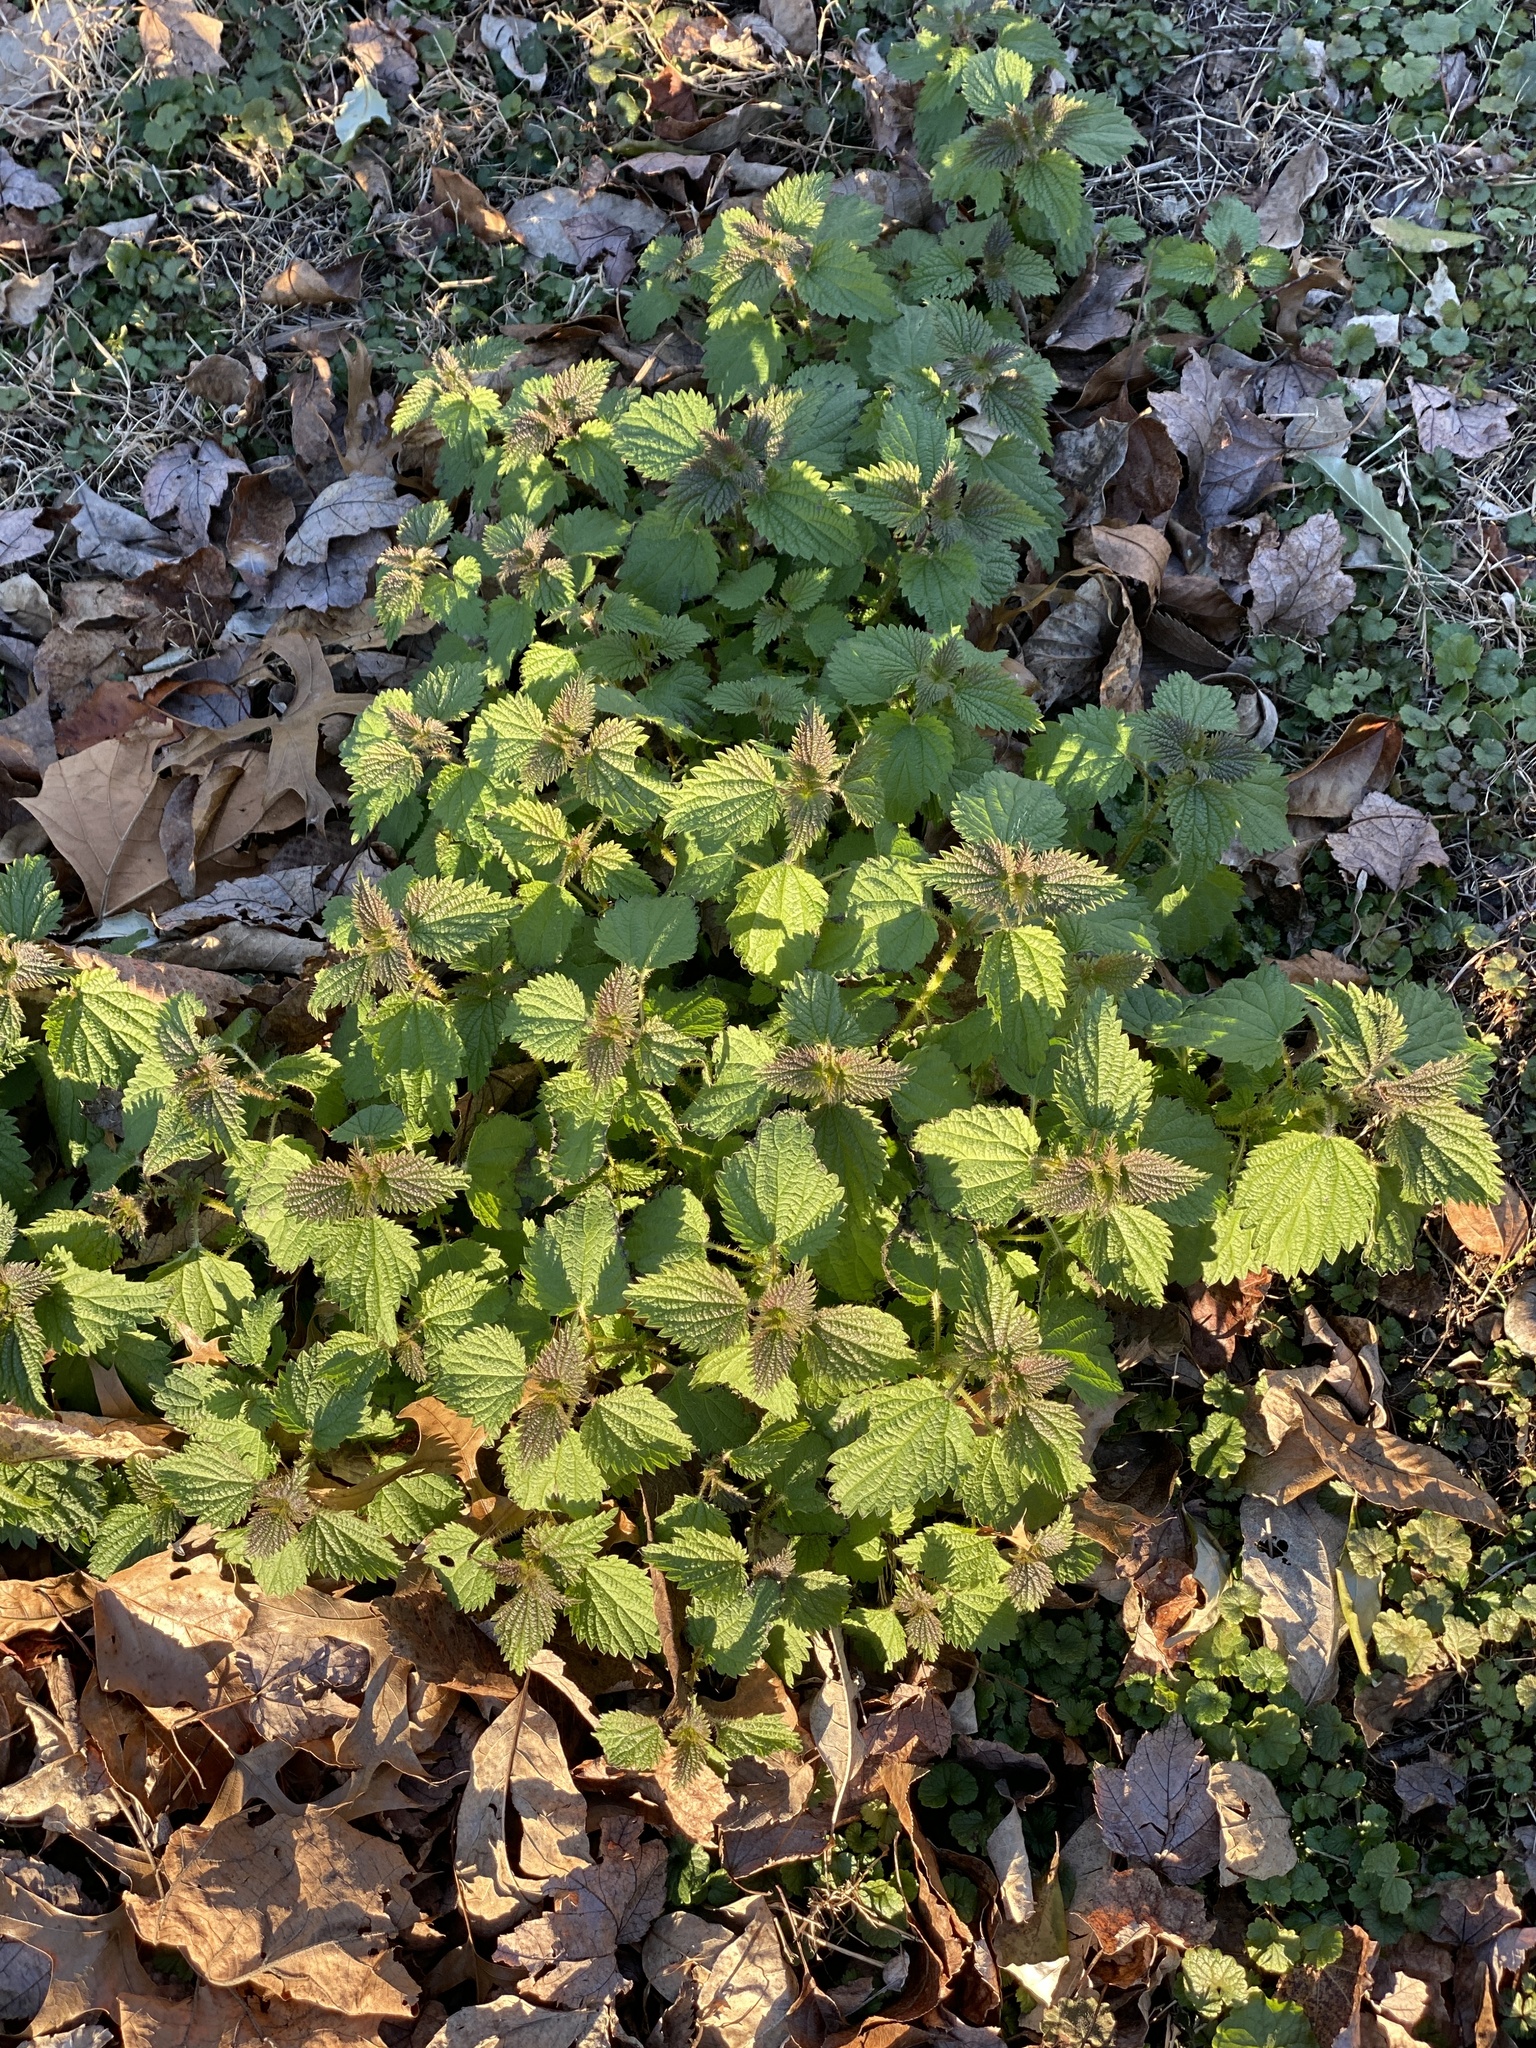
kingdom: Plantae
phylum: Tracheophyta
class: Magnoliopsida
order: Rosales
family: Urticaceae
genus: Urtica
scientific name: Urtica dioica
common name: Common nettle
